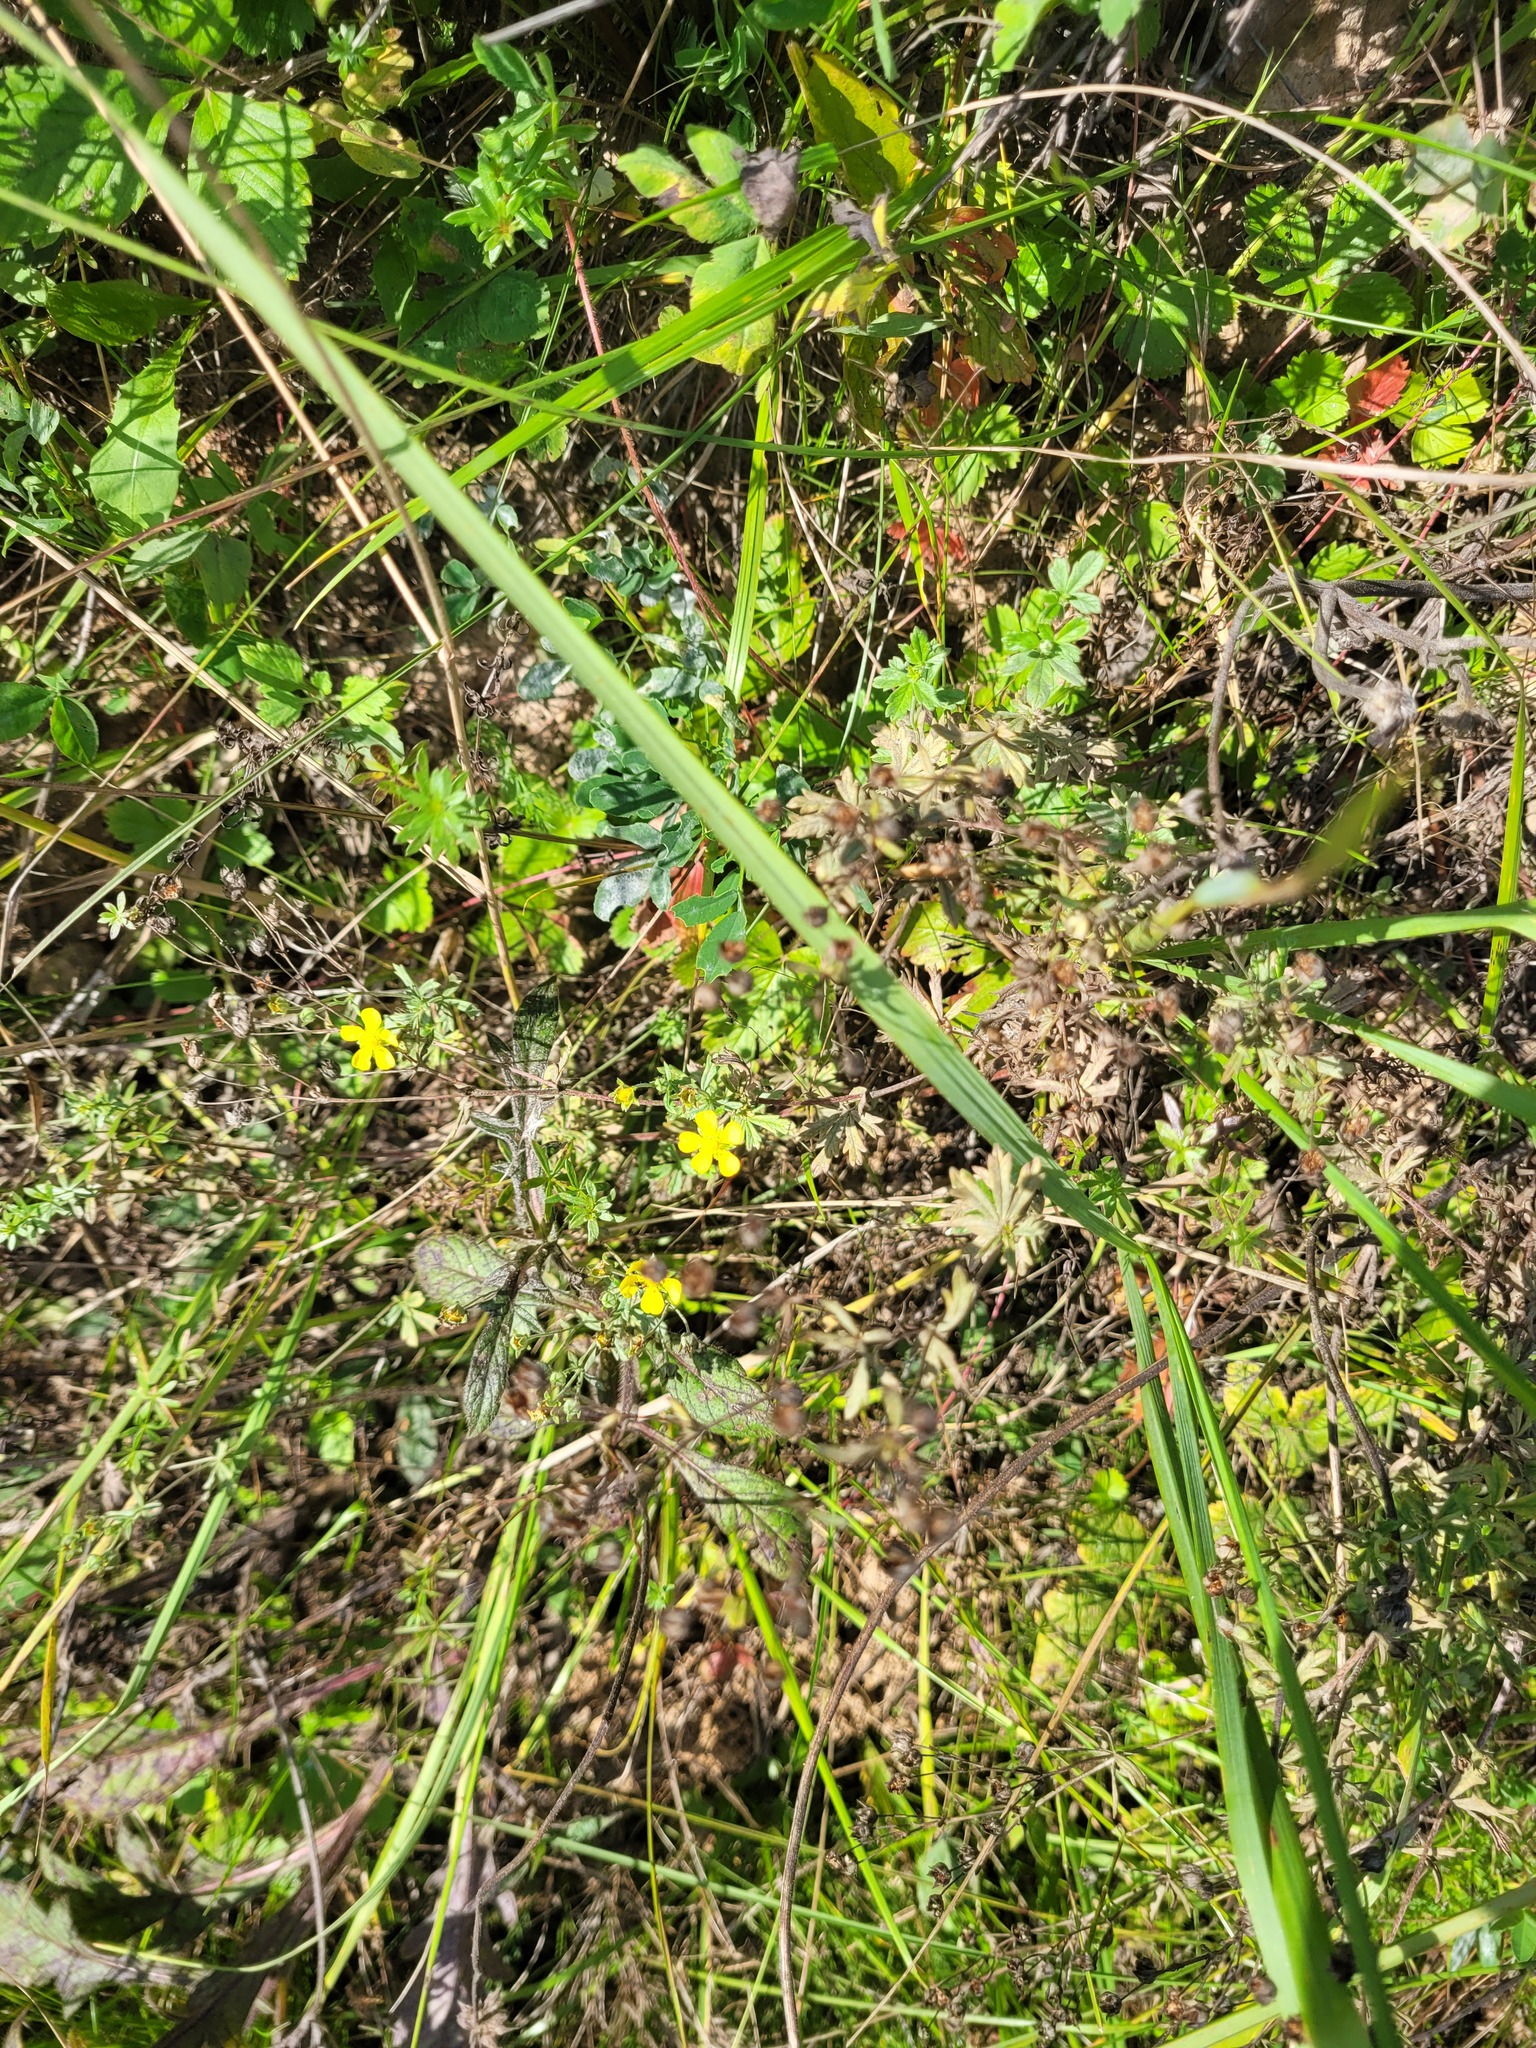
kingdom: Plantae
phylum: Tracheophyta
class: Magnoliopsida
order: Rosales
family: Rosaceae
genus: Potentilla
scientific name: Potentilla argentea
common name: Hoary cinquefoil
